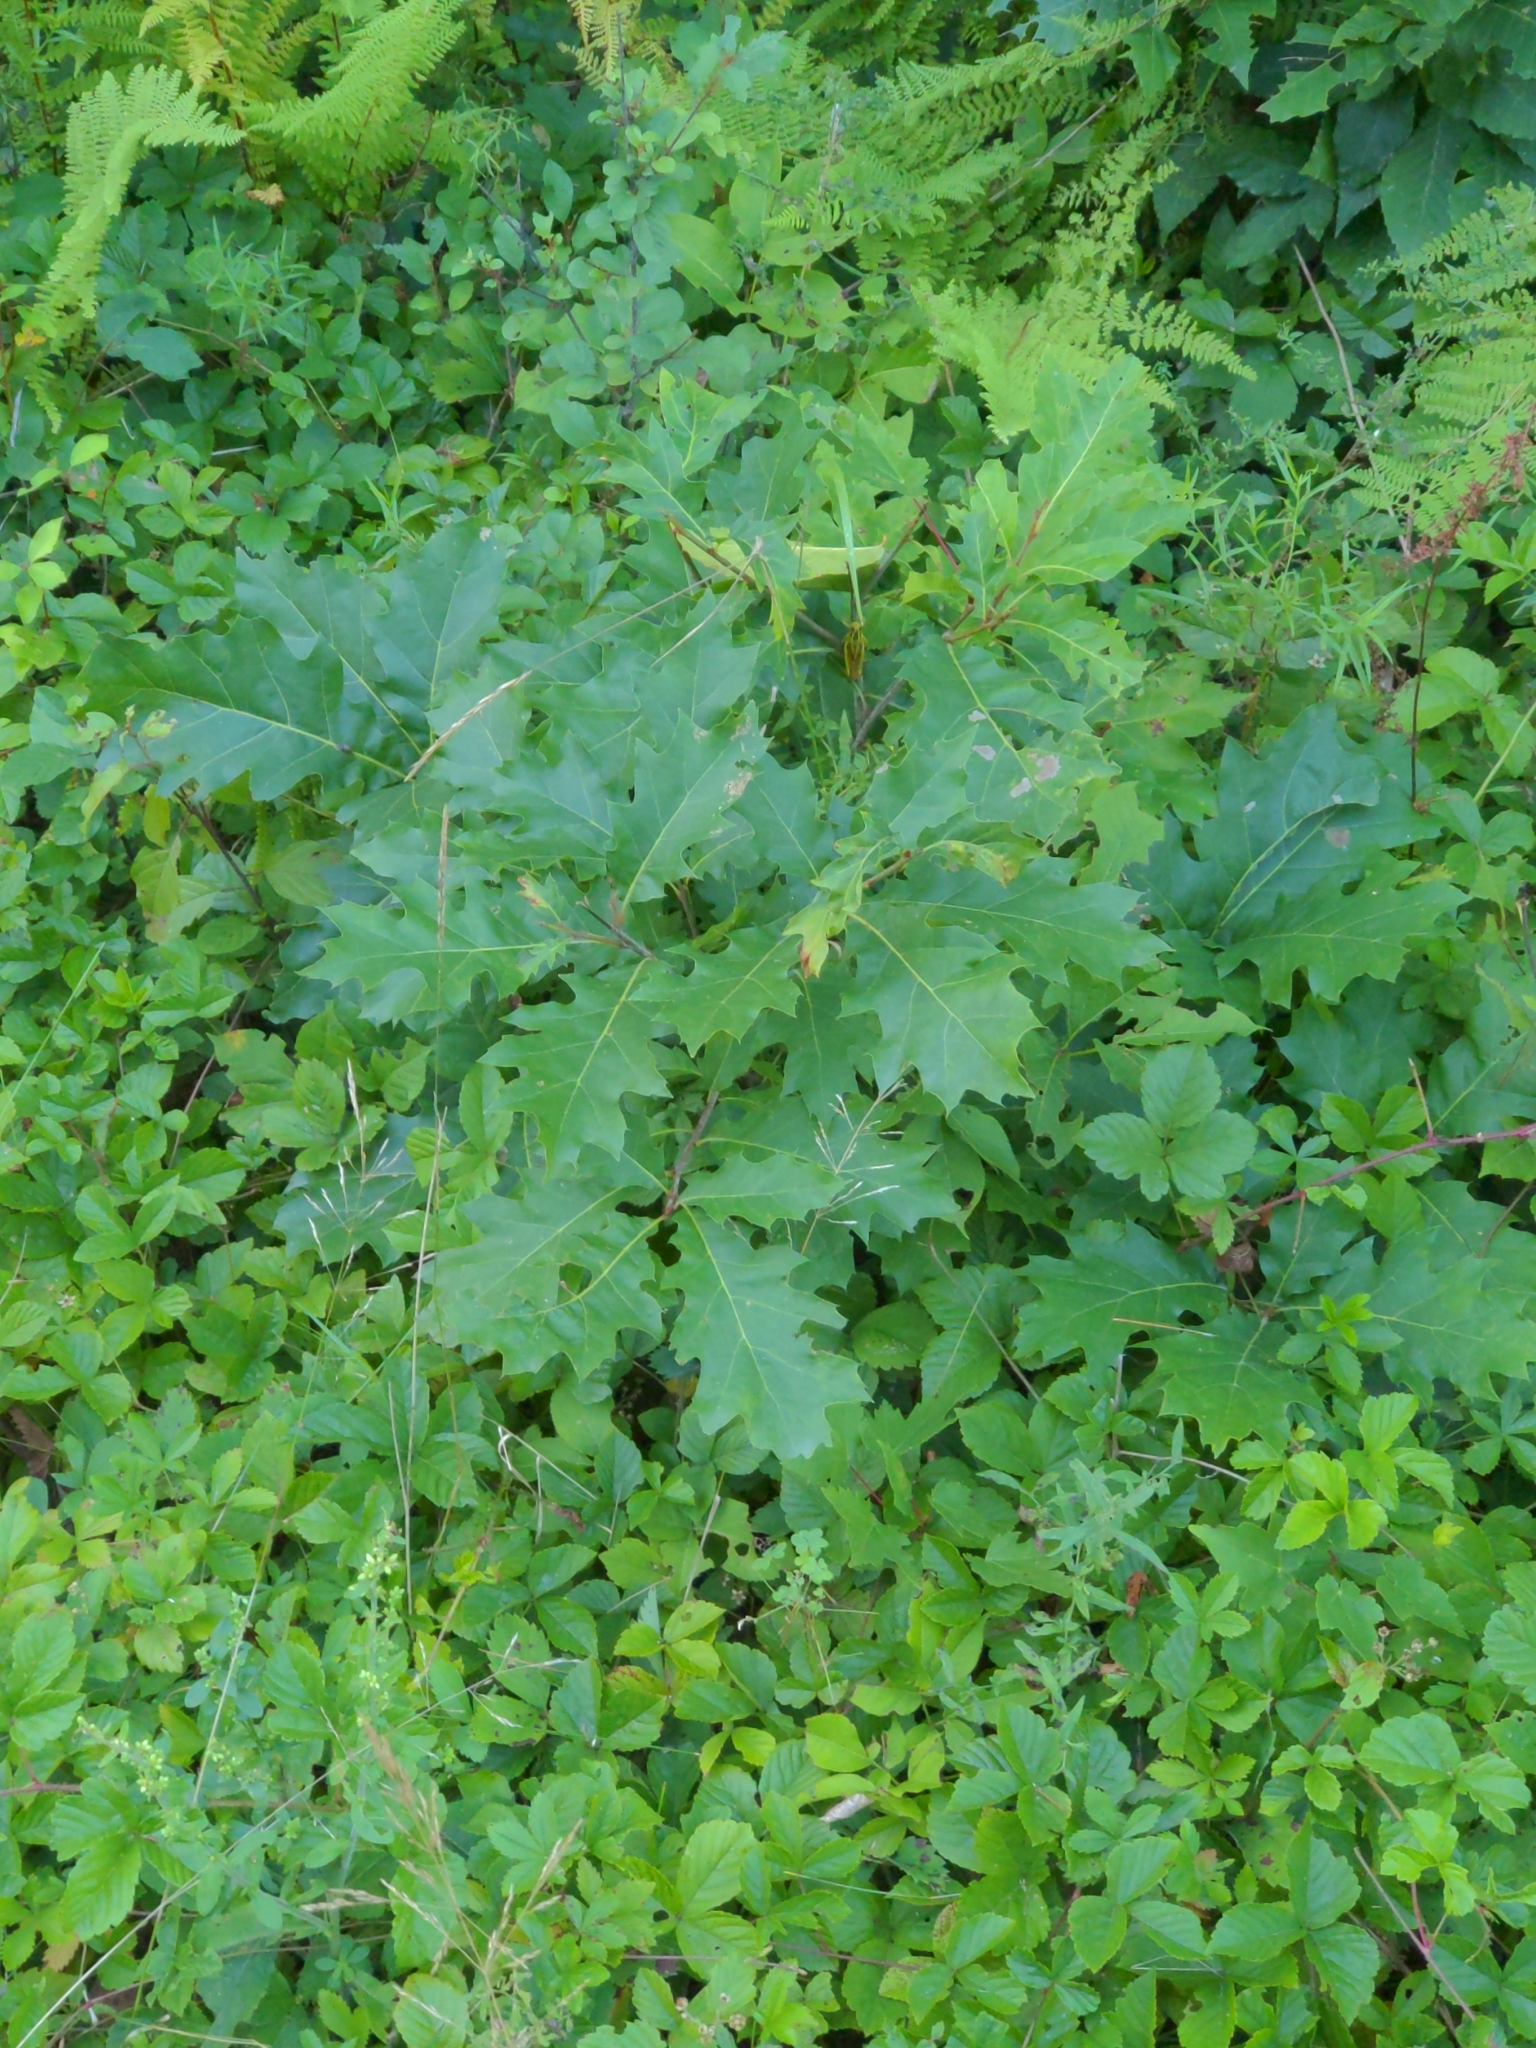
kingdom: Plantae
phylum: Tracheophyta
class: Magnoliopsida
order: Fagales
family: Fagaceae
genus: Quercus
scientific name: Quercus rubra
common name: Red oak
